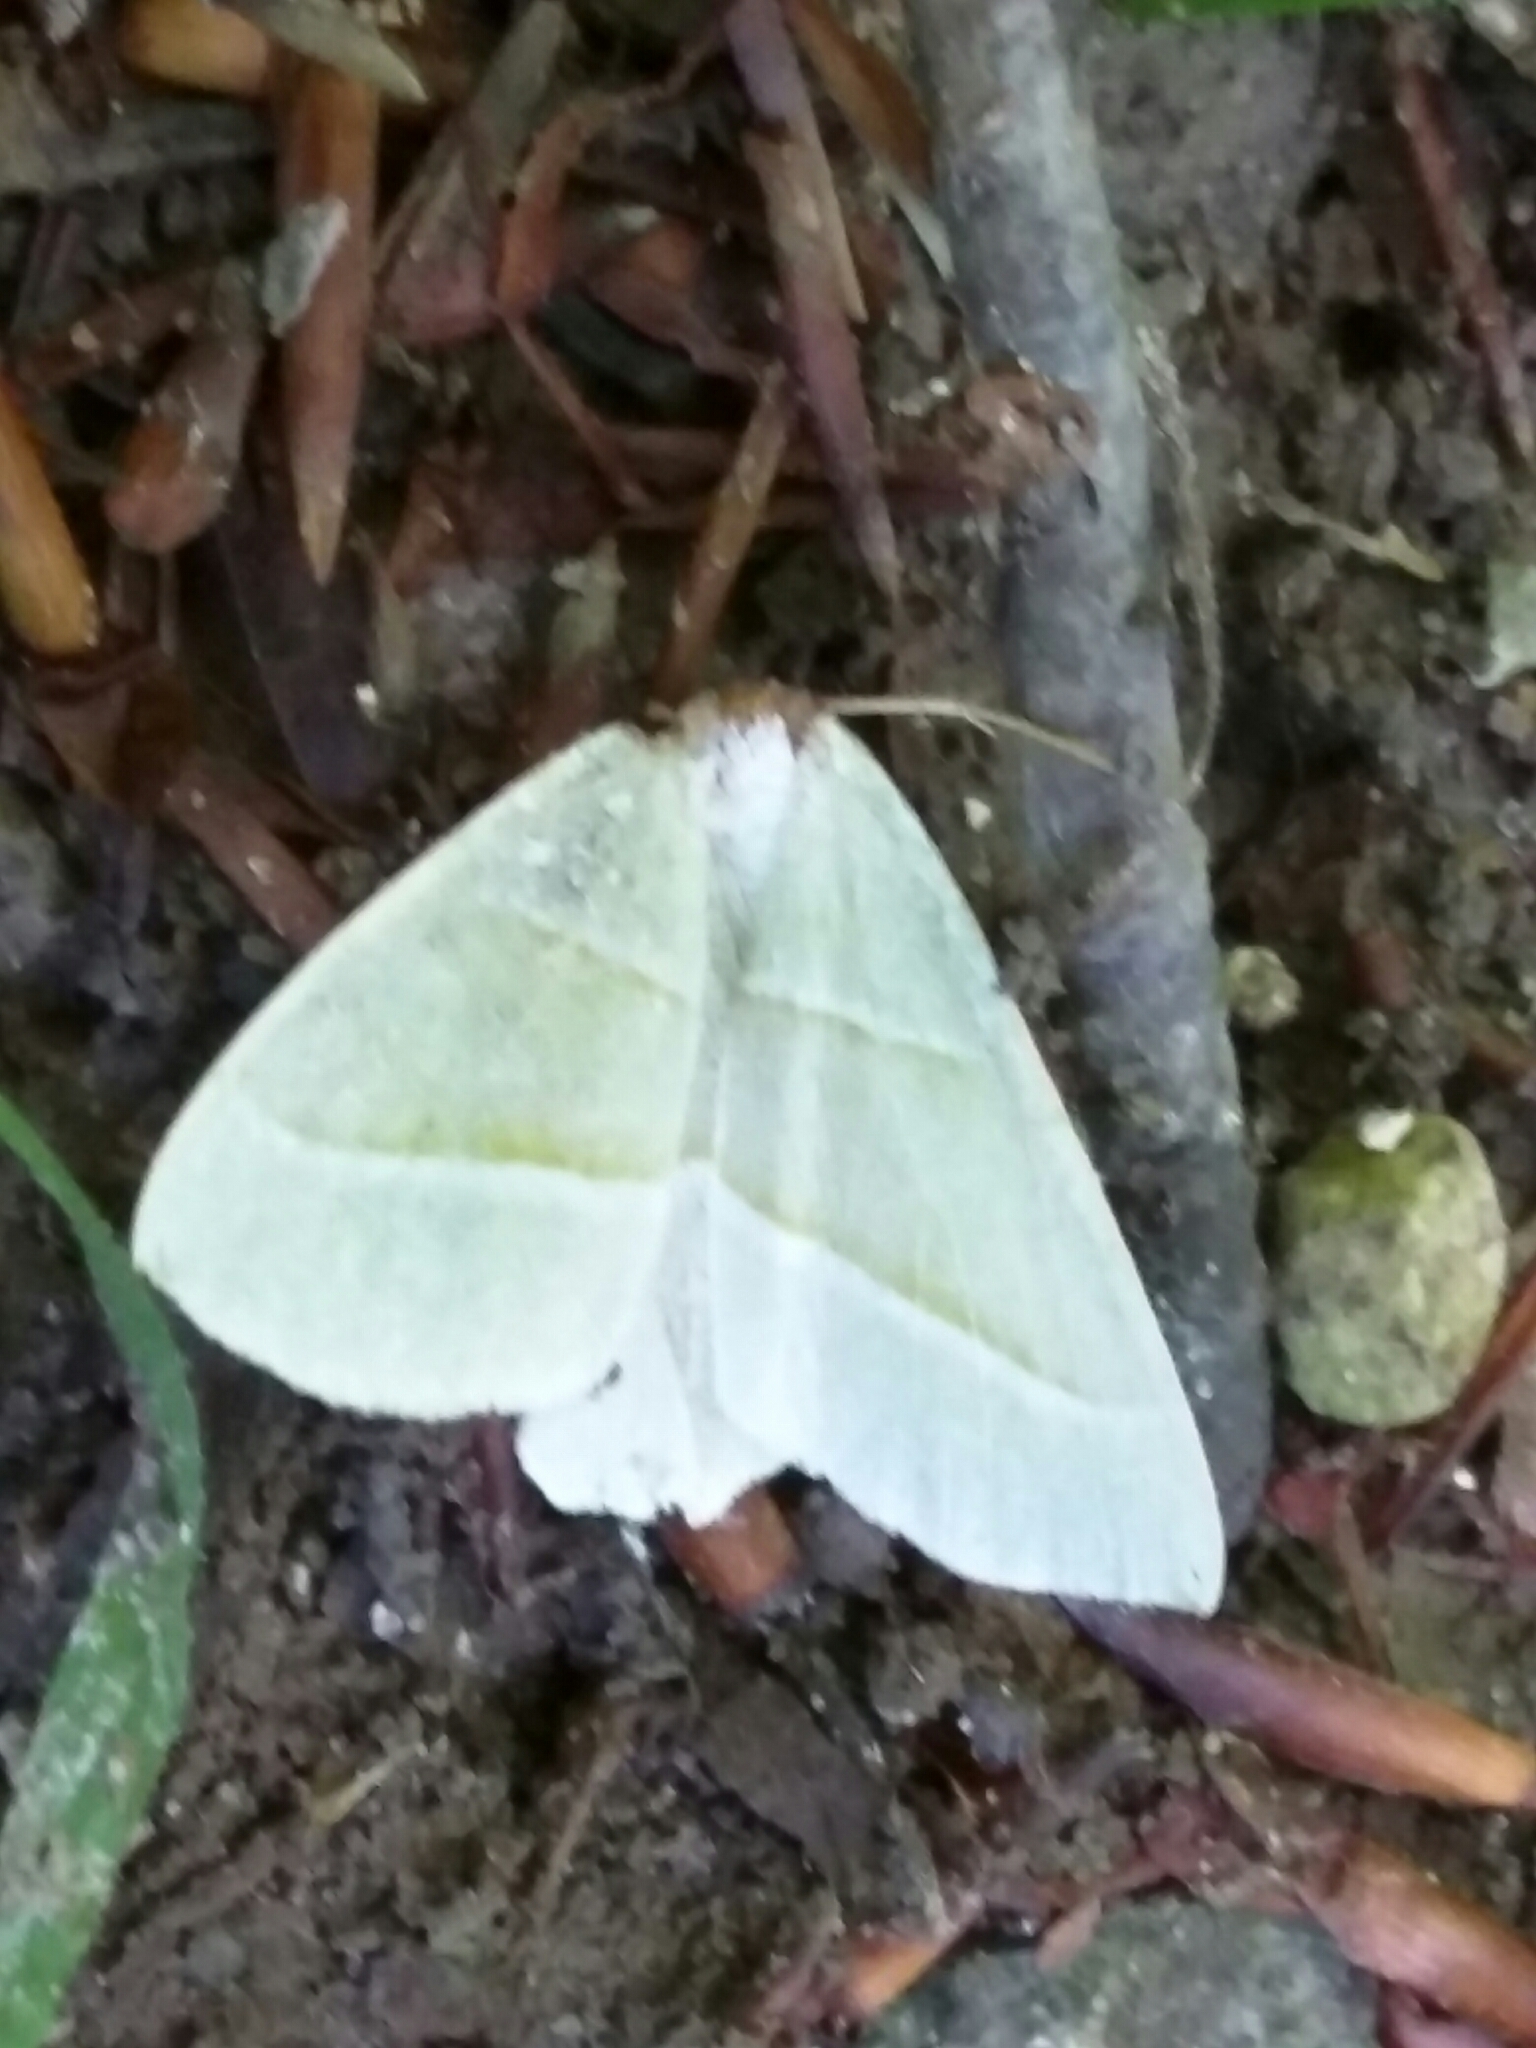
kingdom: Animalia
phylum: Arthropoda
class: Insecta
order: Lepidoptera
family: Geometridae
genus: Campaea
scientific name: Campaea margaritaria
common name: Light emerald
